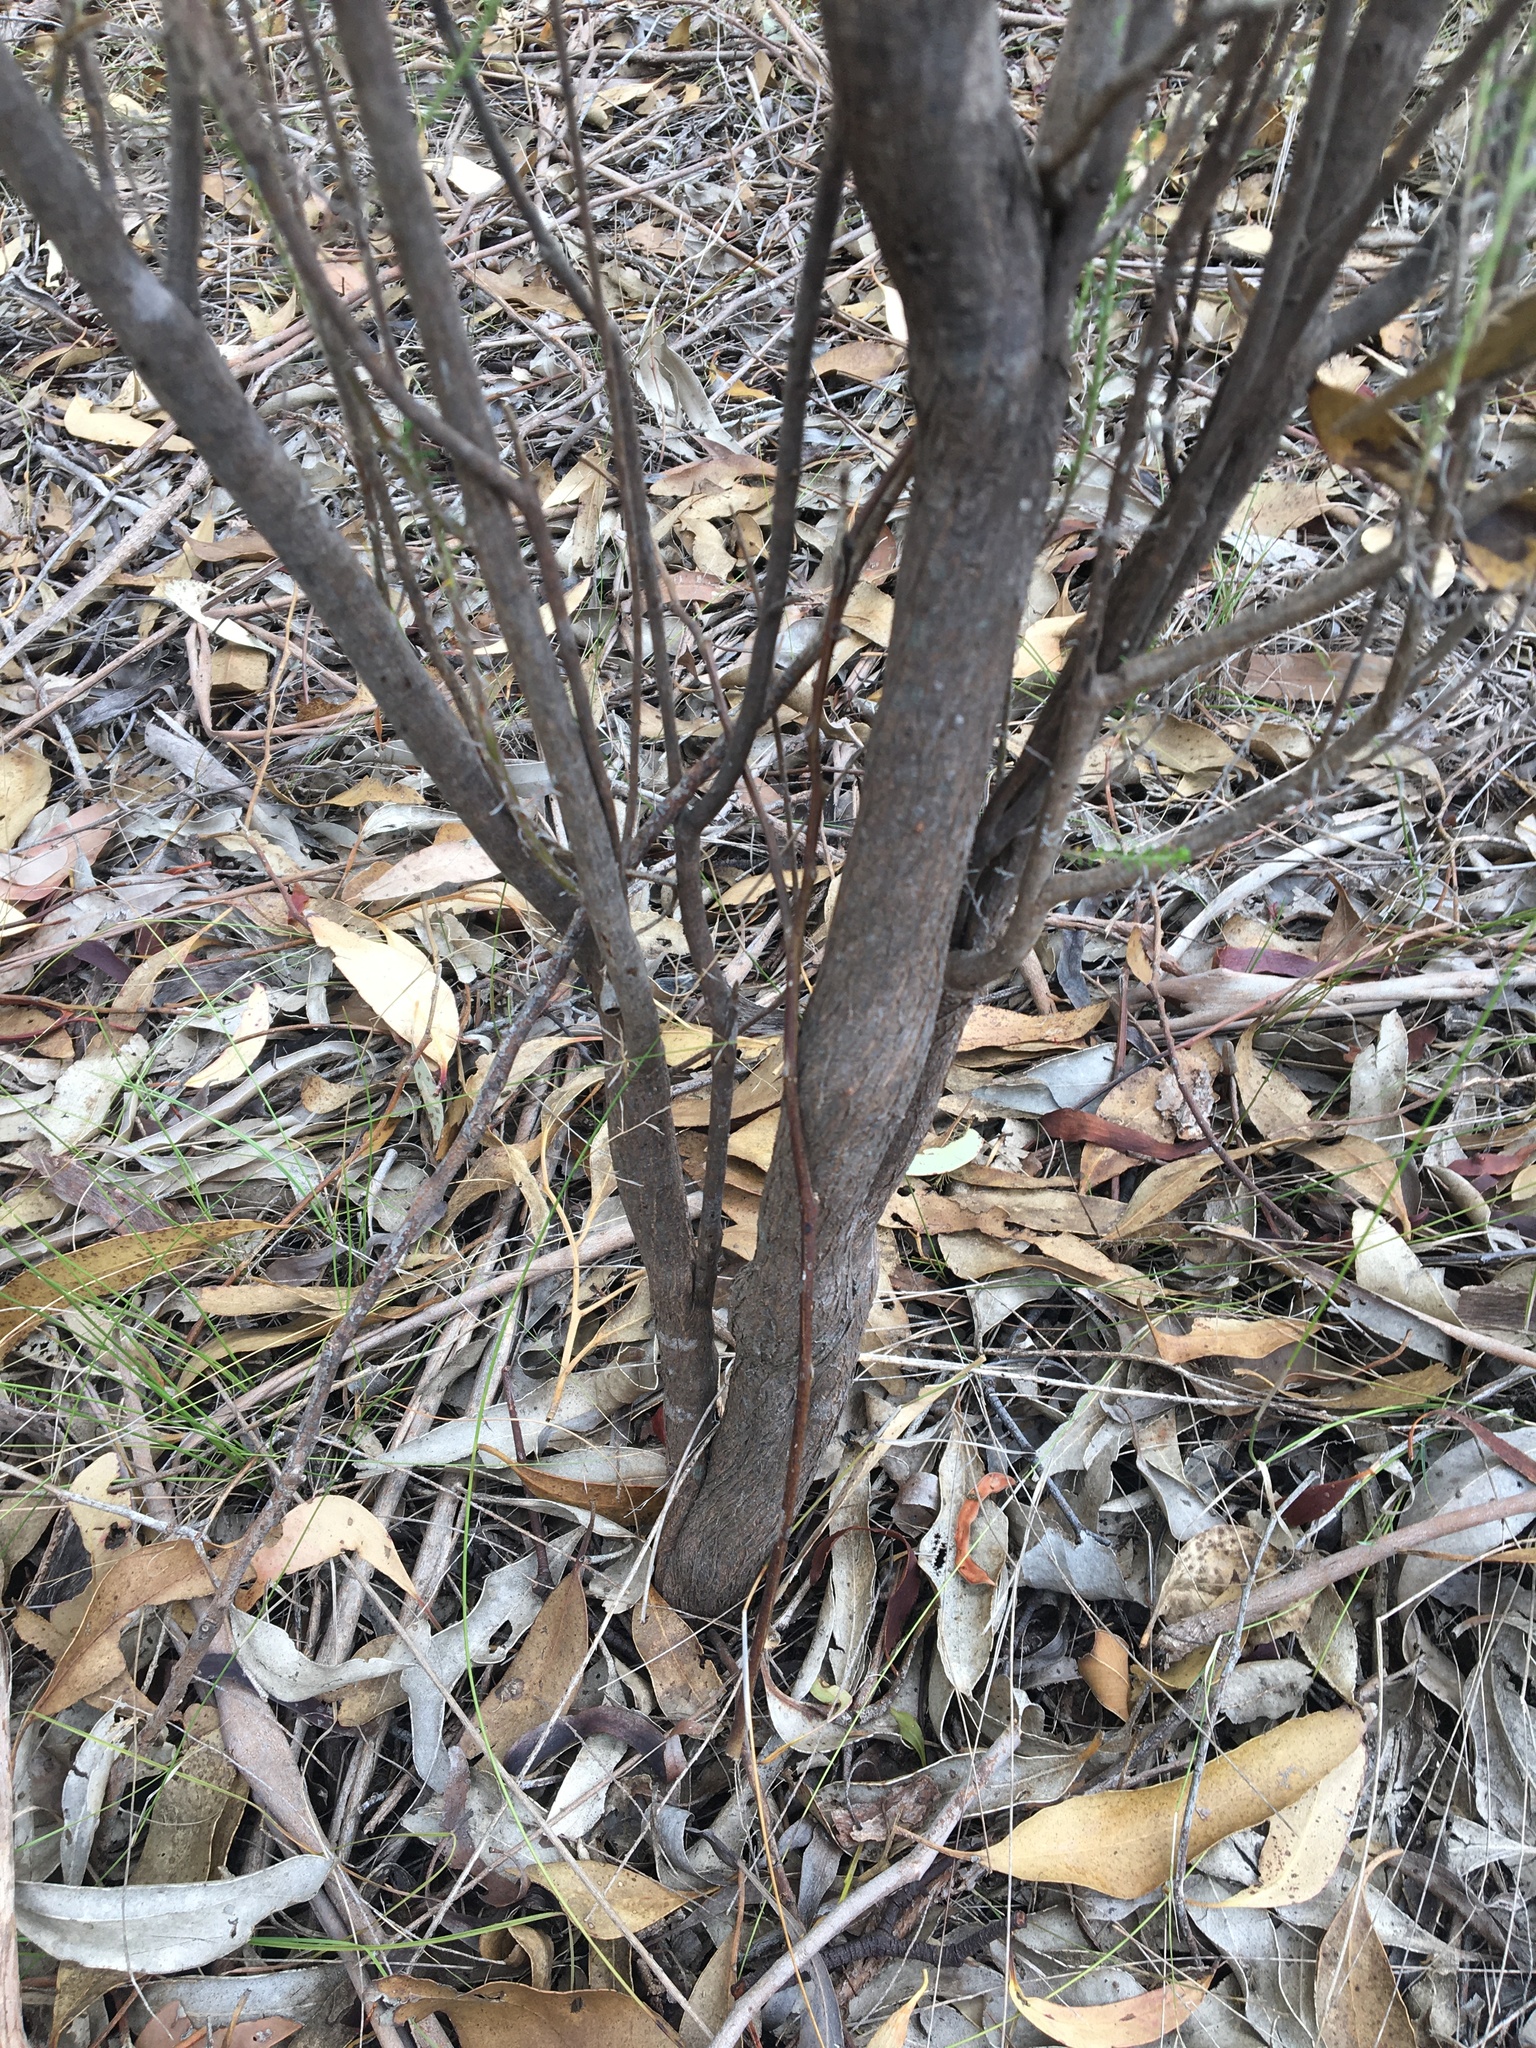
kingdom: Plantae
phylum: Tracheophyta
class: Magnoliopsida
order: Asterales
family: Asteraceae
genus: Cassinia
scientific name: Cassinia sifton
